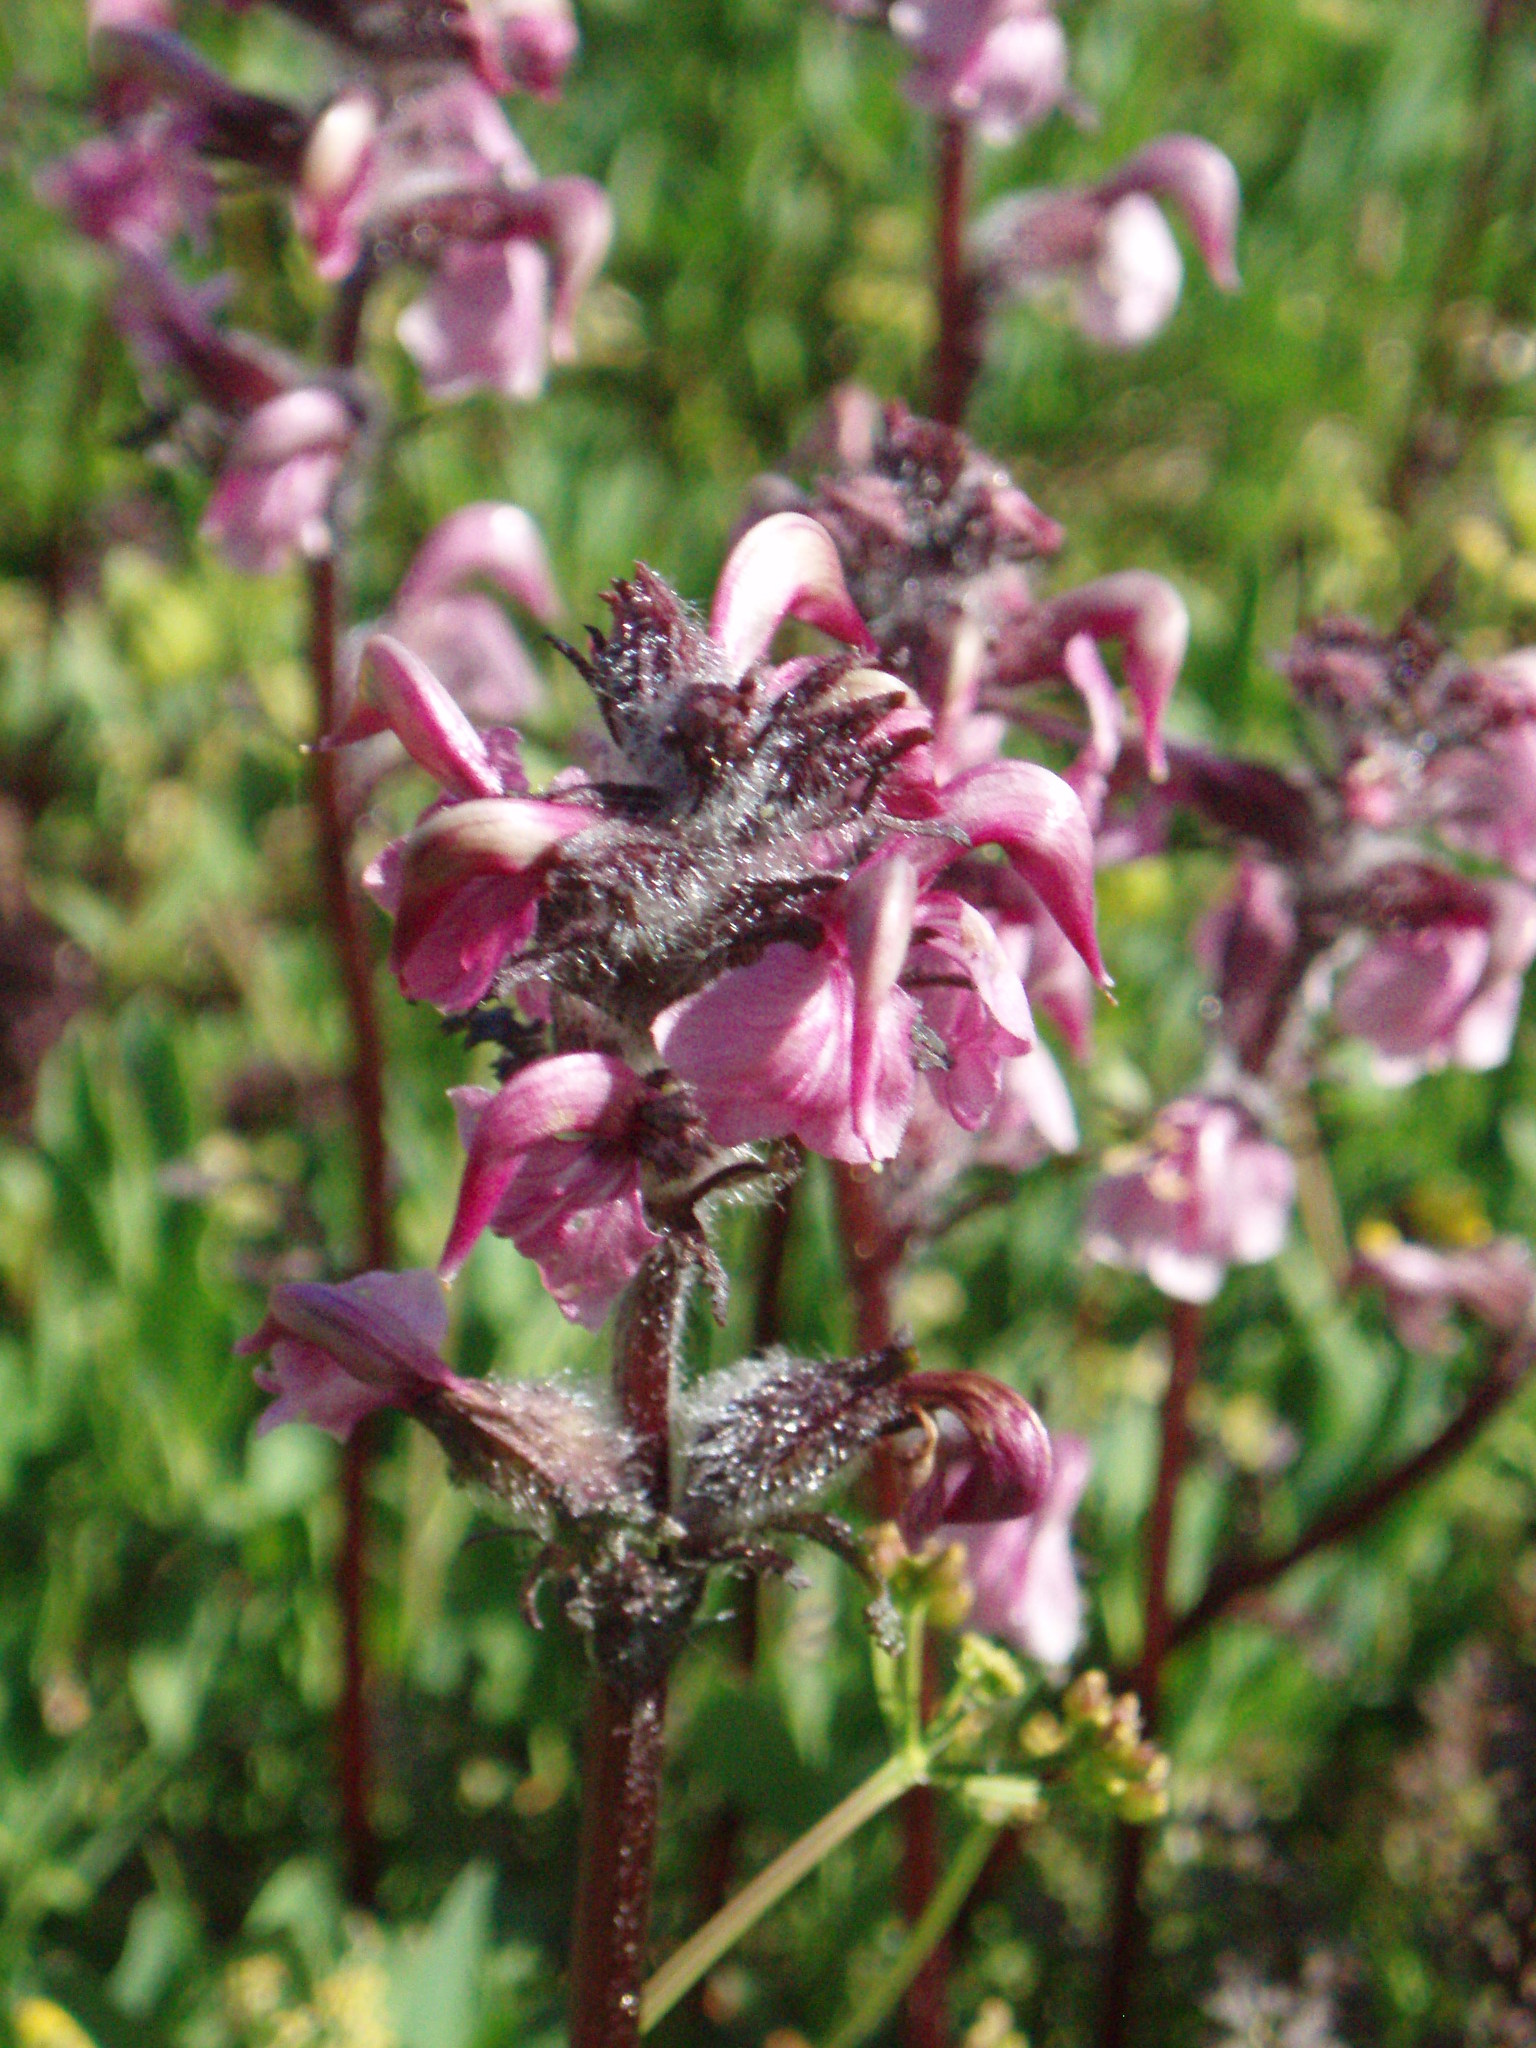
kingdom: Plantae
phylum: Tracheophyta
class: Magnoliopsida
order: Lamiales
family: Orobanchaceae
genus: Pedicularis
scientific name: Pedicularis ornithorhynchos
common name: Bird's-beak lousewort
